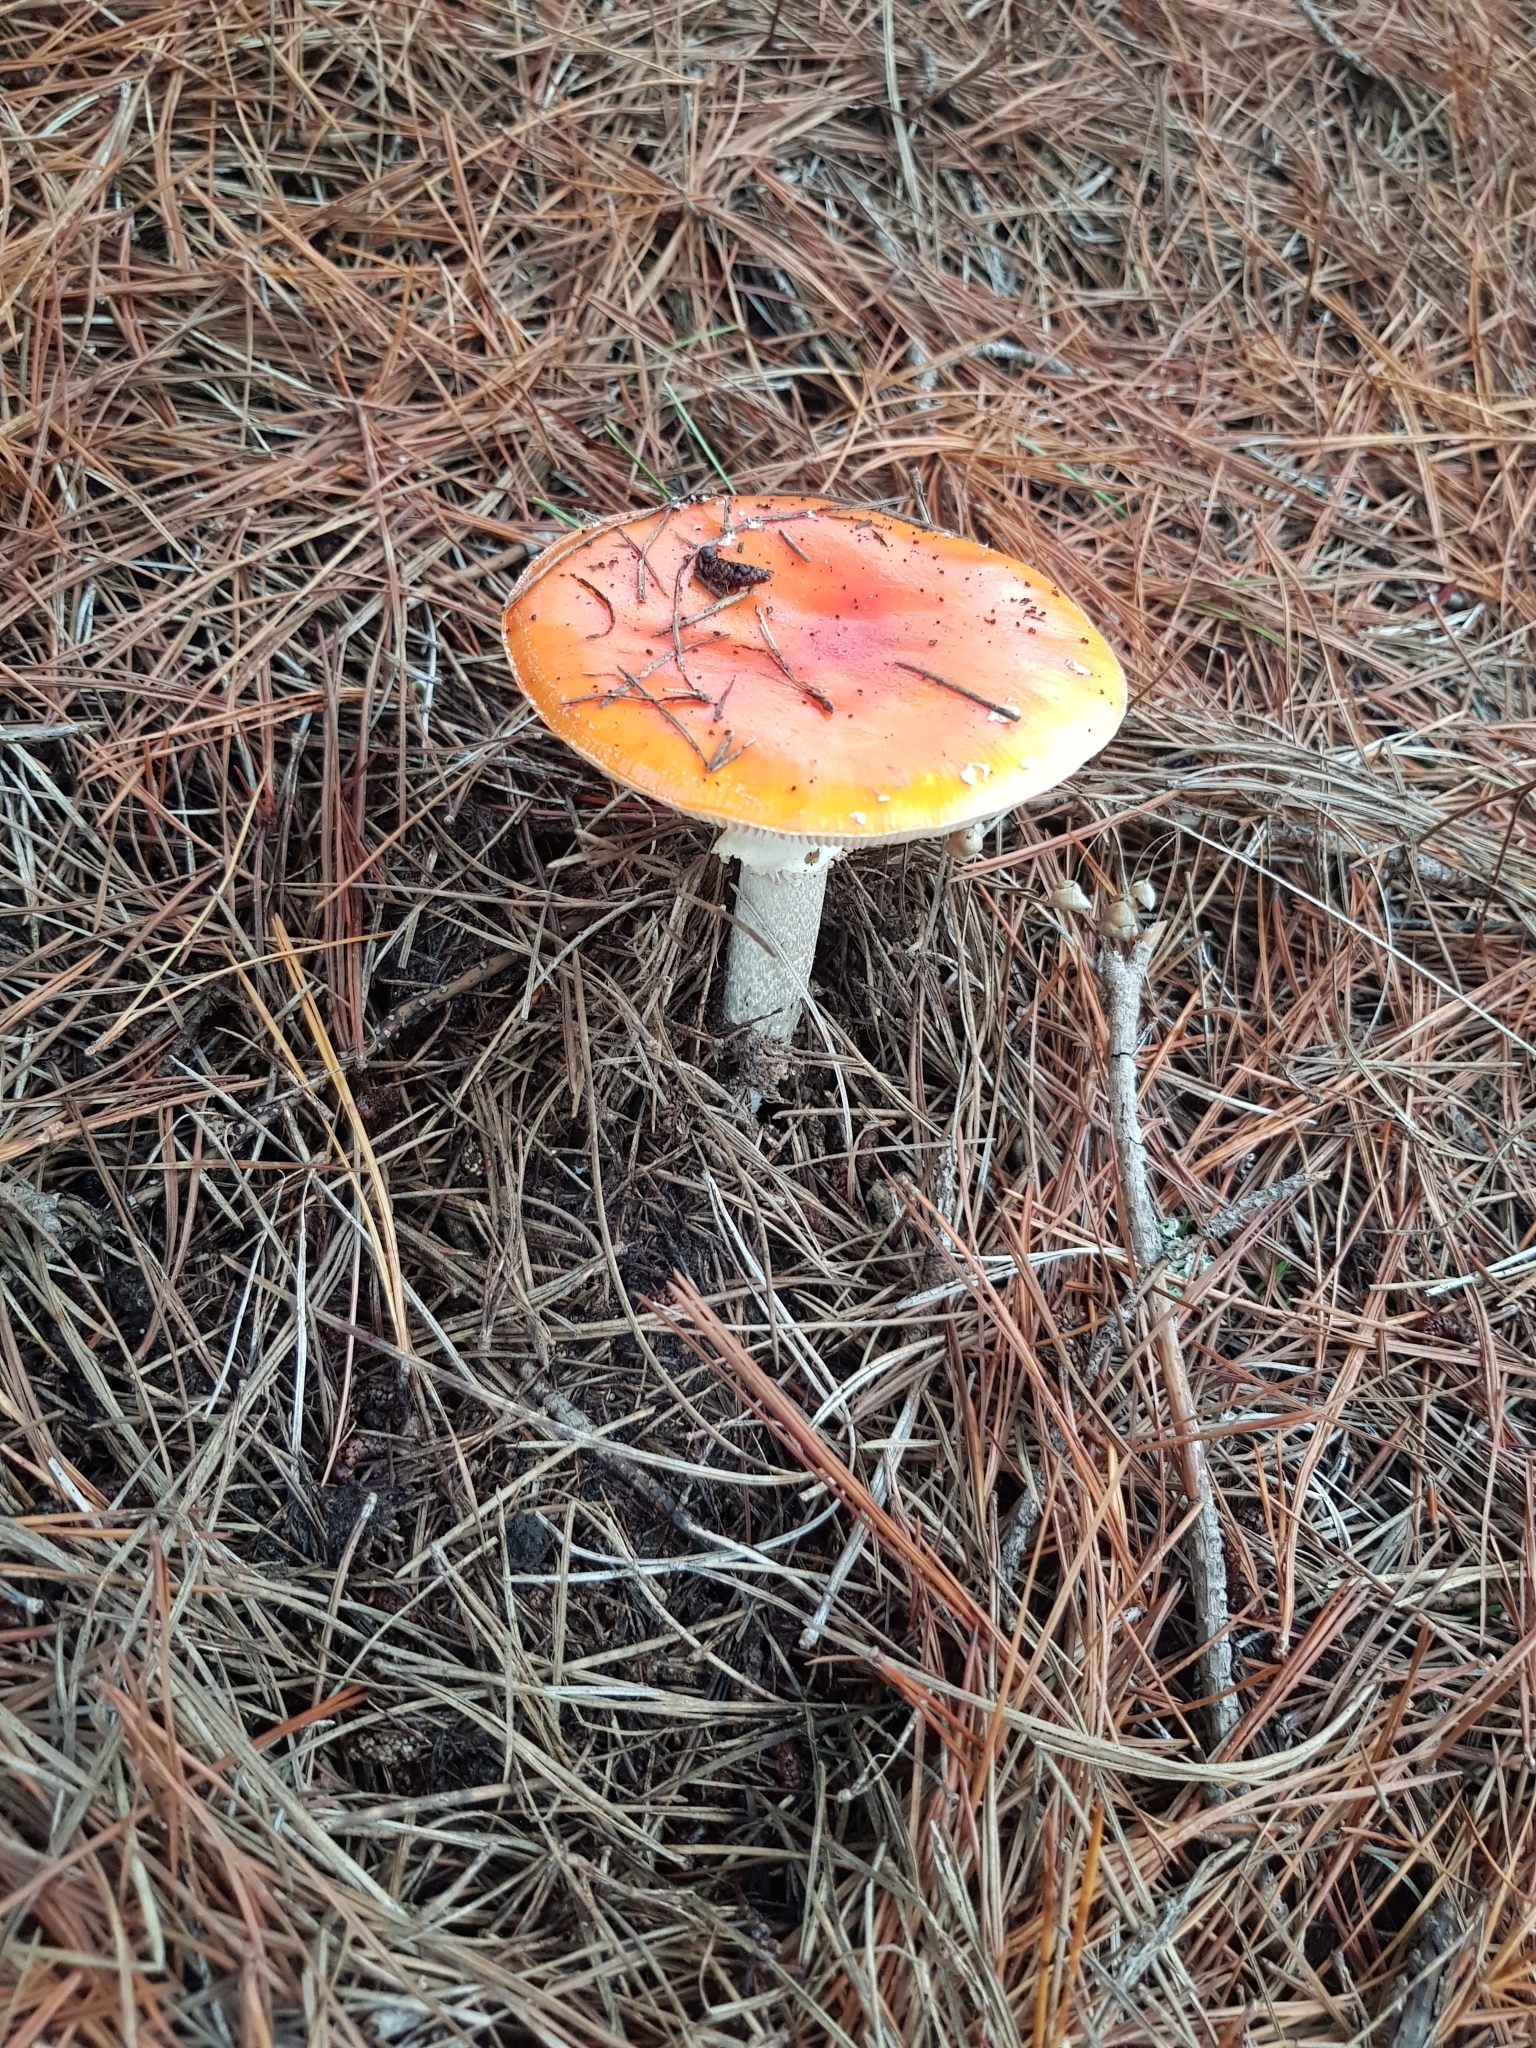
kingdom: Fungi
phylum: Basidiomycota
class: Agaricomycetes
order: Agaricales
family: Amanitaceae
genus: Amanita
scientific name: Amanita muscaria
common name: Fly agaric
